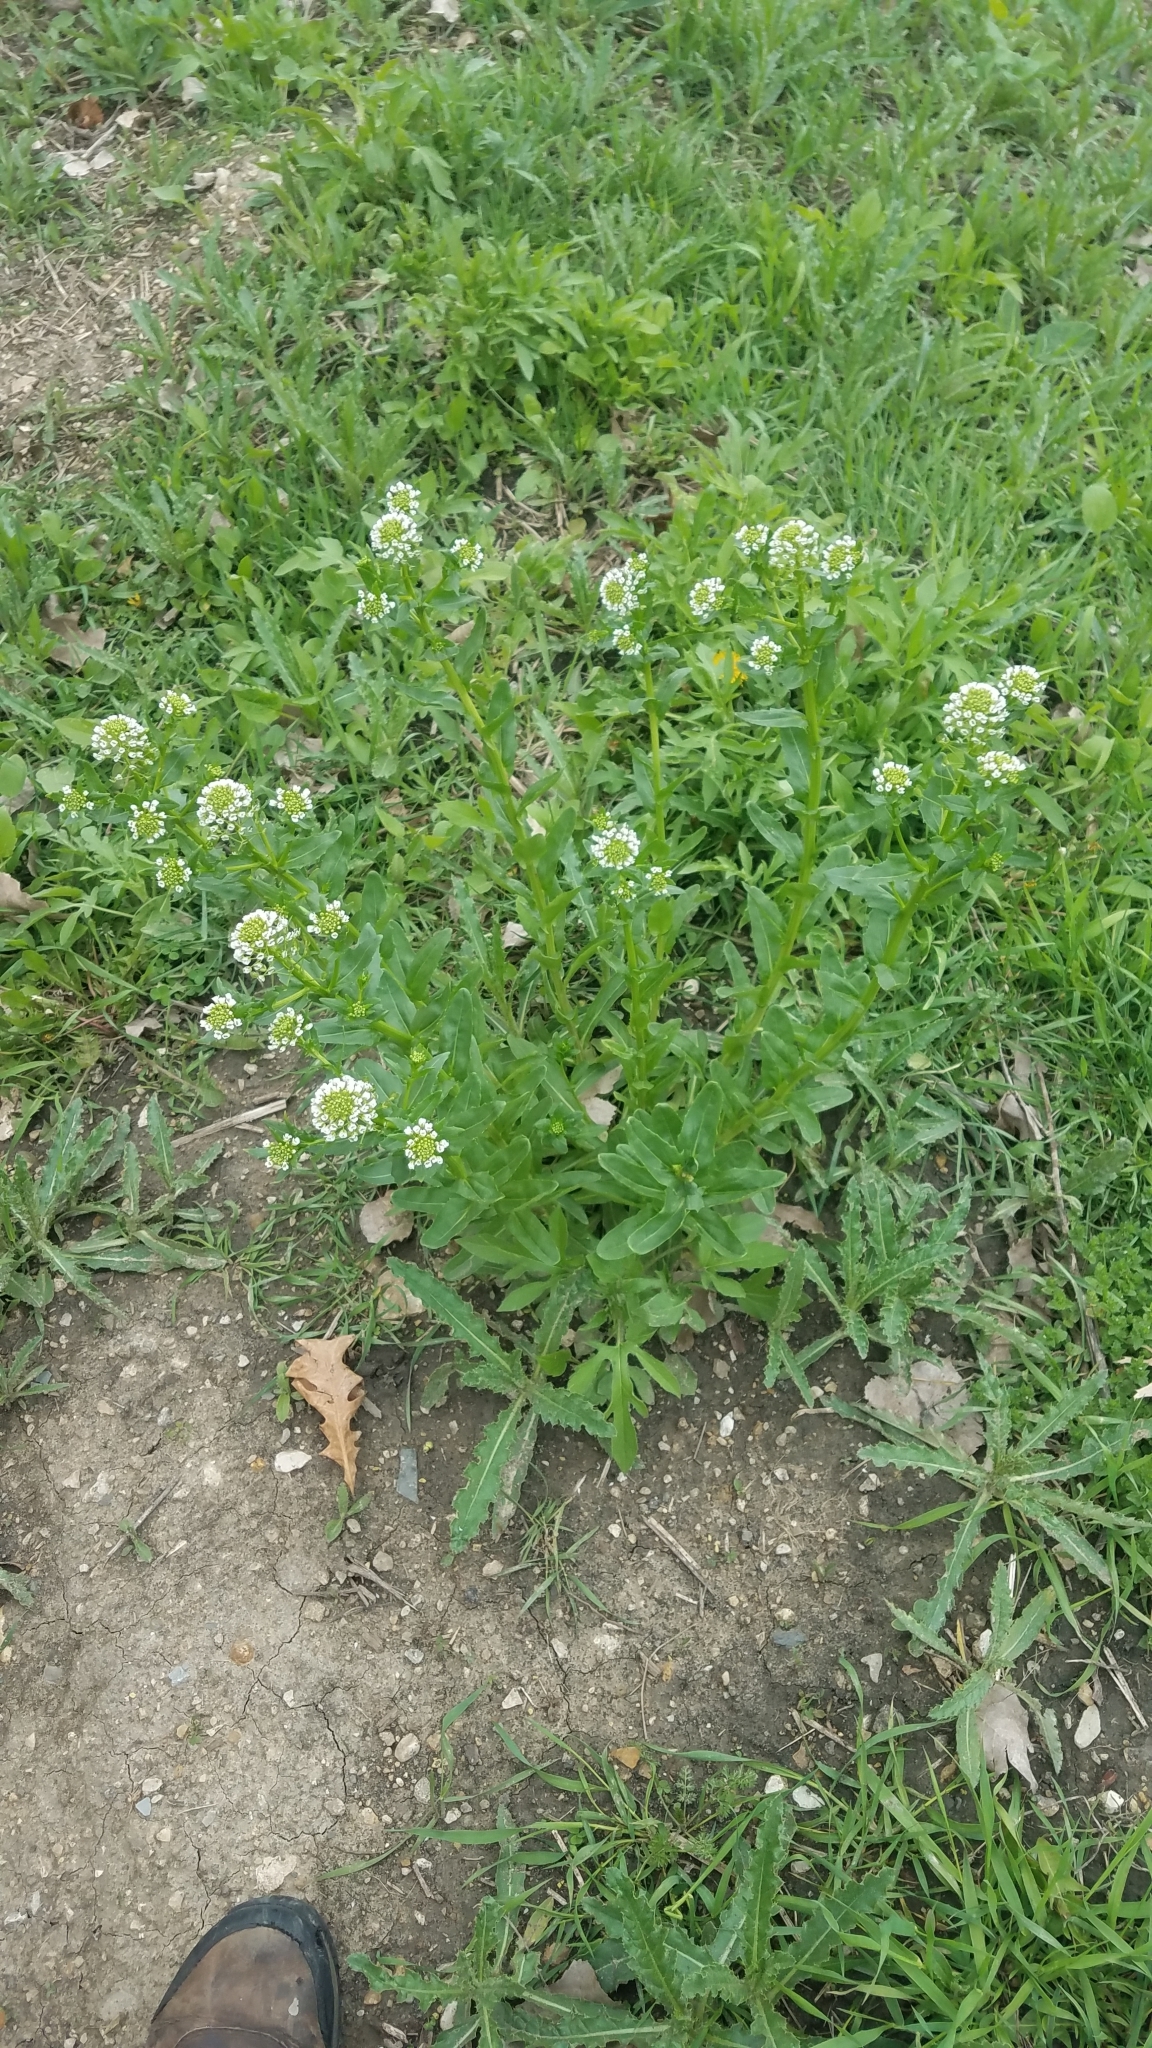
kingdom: Plantae
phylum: Tracheophyta
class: Magnoliopsida
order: Brassicales
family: Brassicaceae
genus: Thlaspi
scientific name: Thlaspi arvense
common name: Field pennycress
